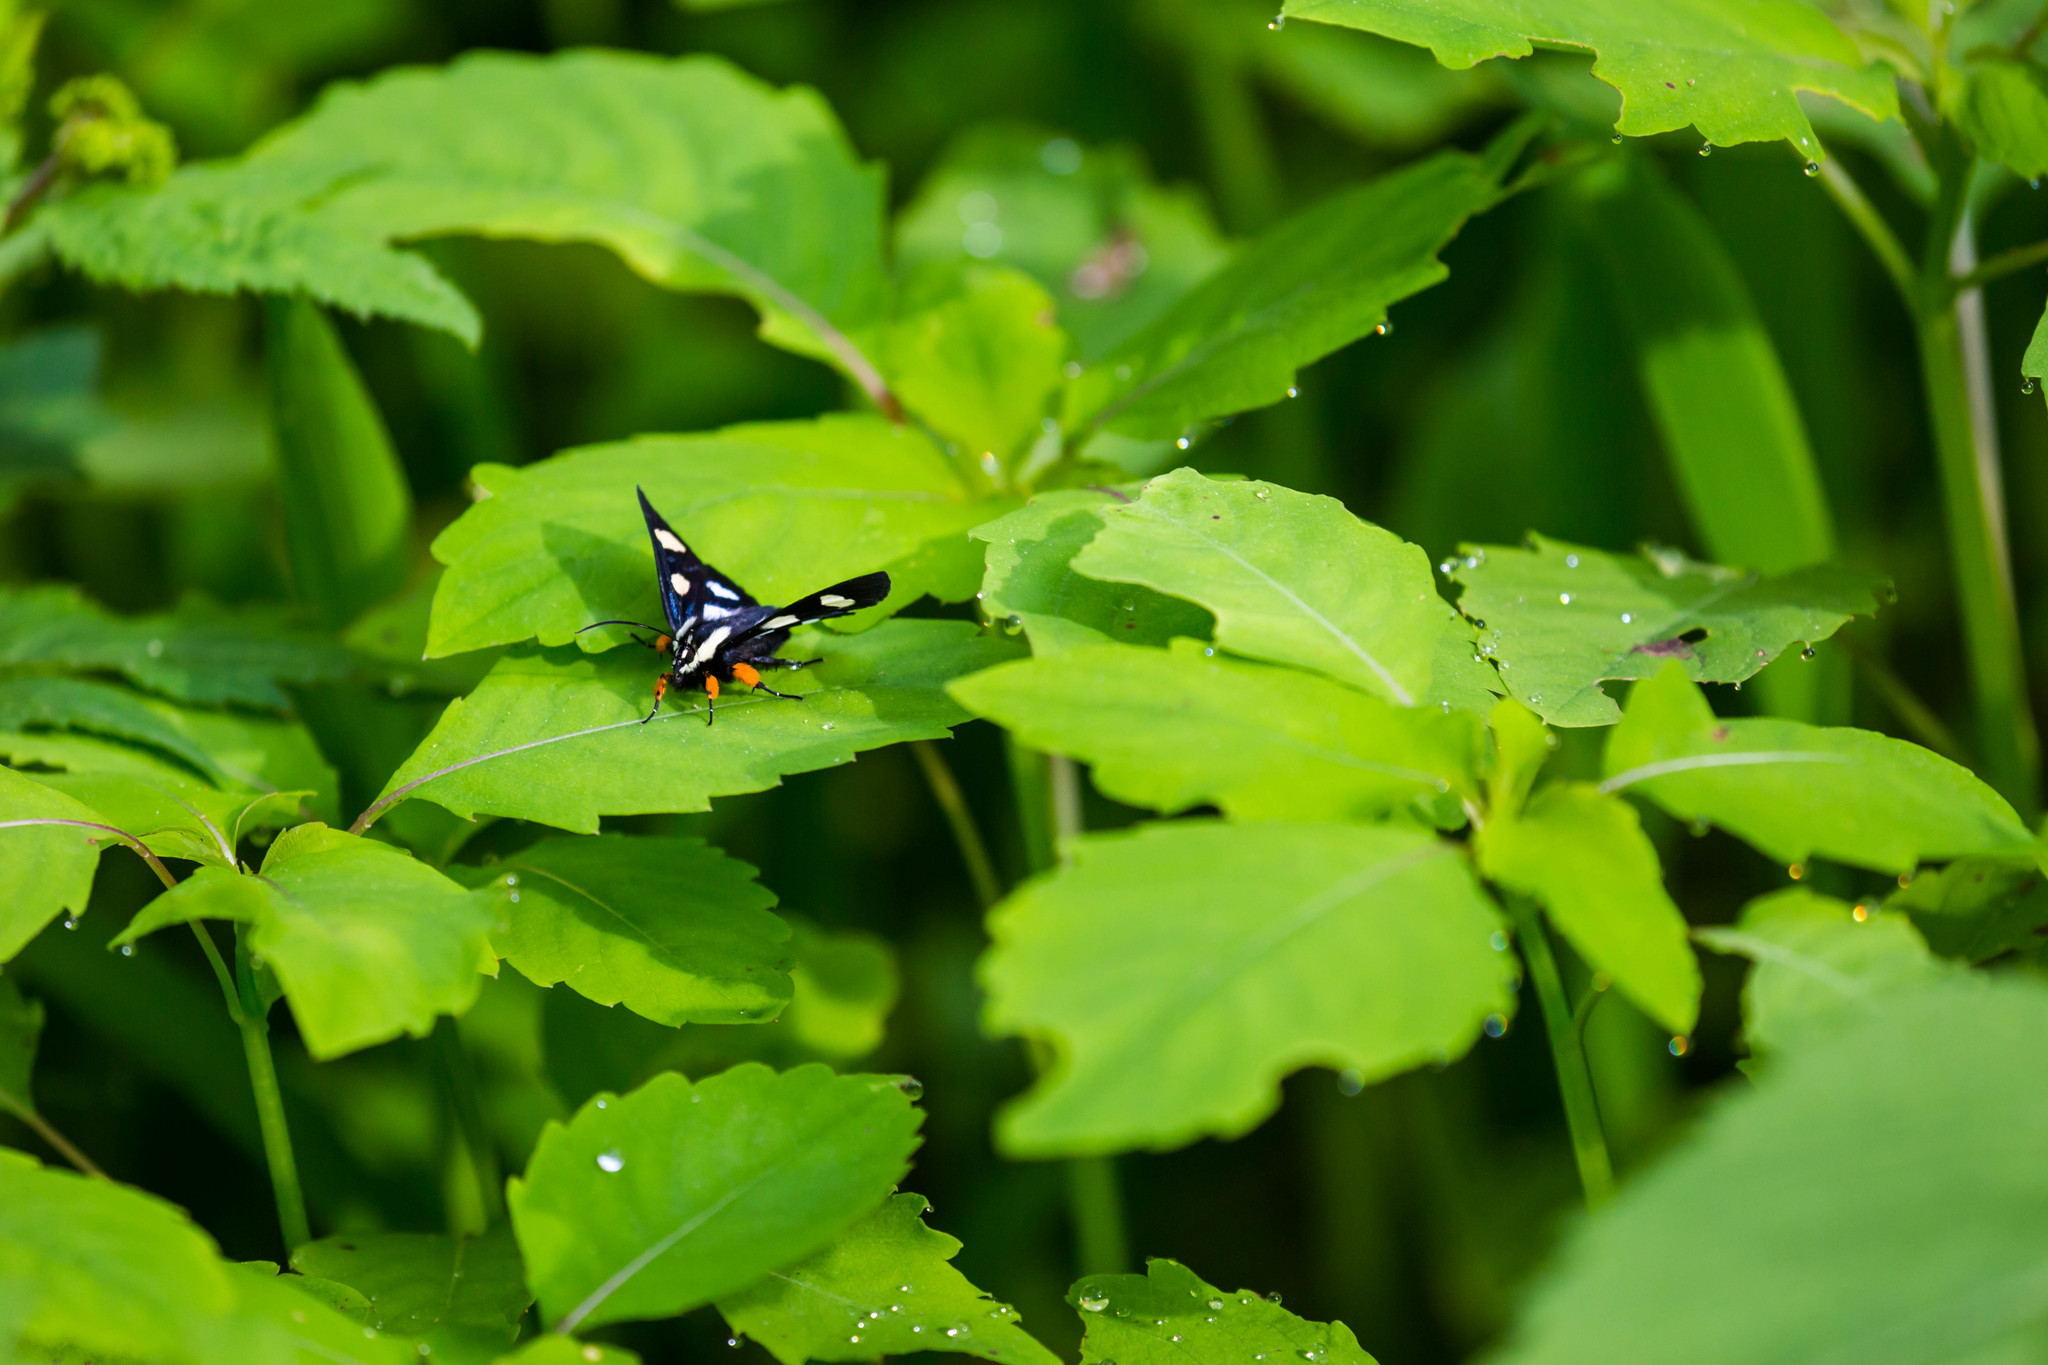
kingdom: Animalia
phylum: Arthropoda
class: Insecta
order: Lepidoptera
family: Noctuidae
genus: Alypia
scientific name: Alypia octomaculata
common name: Eight-spotted forester
